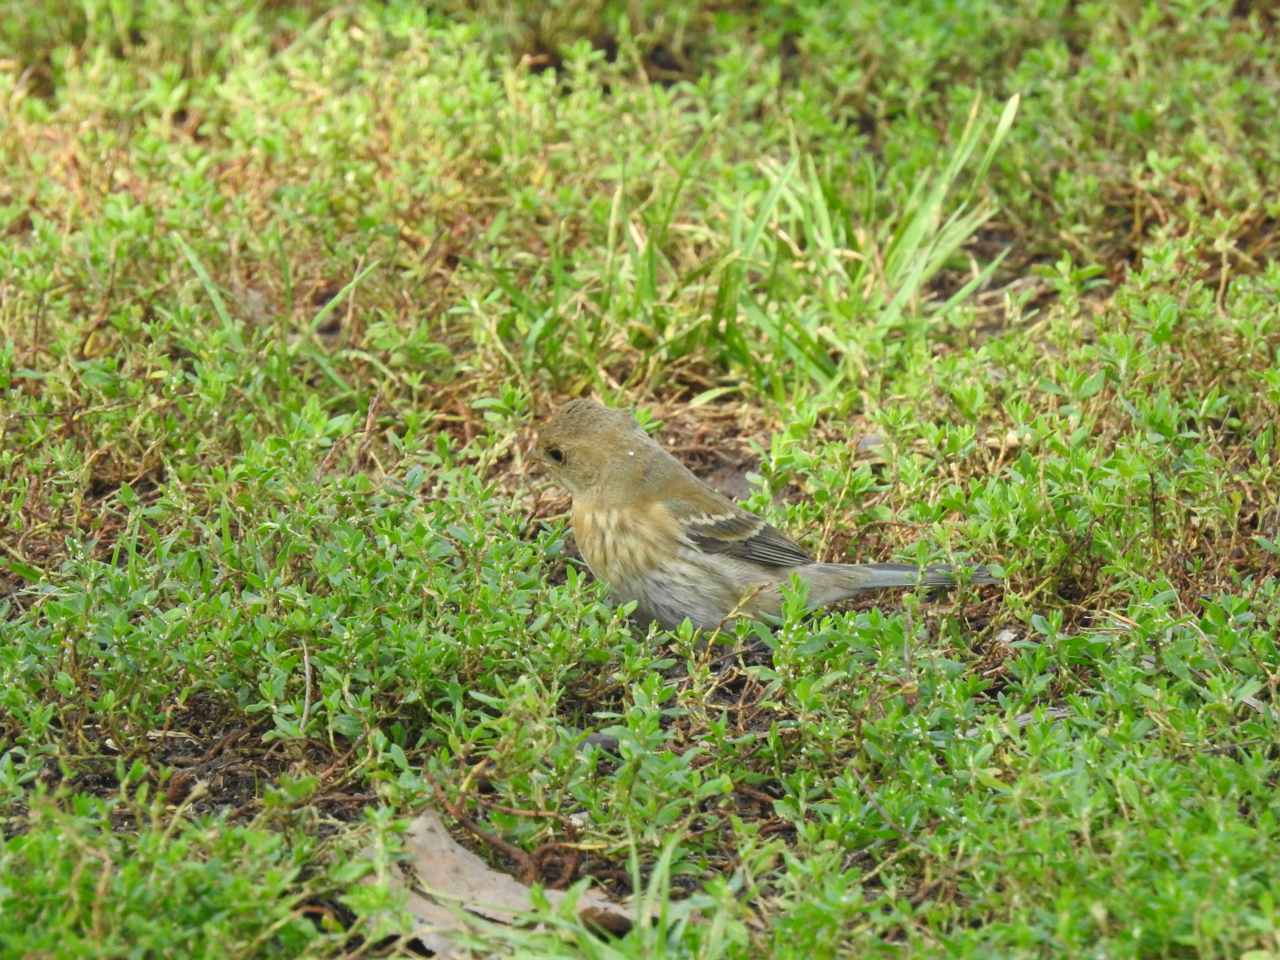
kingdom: Animalia
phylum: Chordata
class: Aves
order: Passeriformes
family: Cardinalidae
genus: Passerina
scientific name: Passerina amoena
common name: Lazuli bunting
